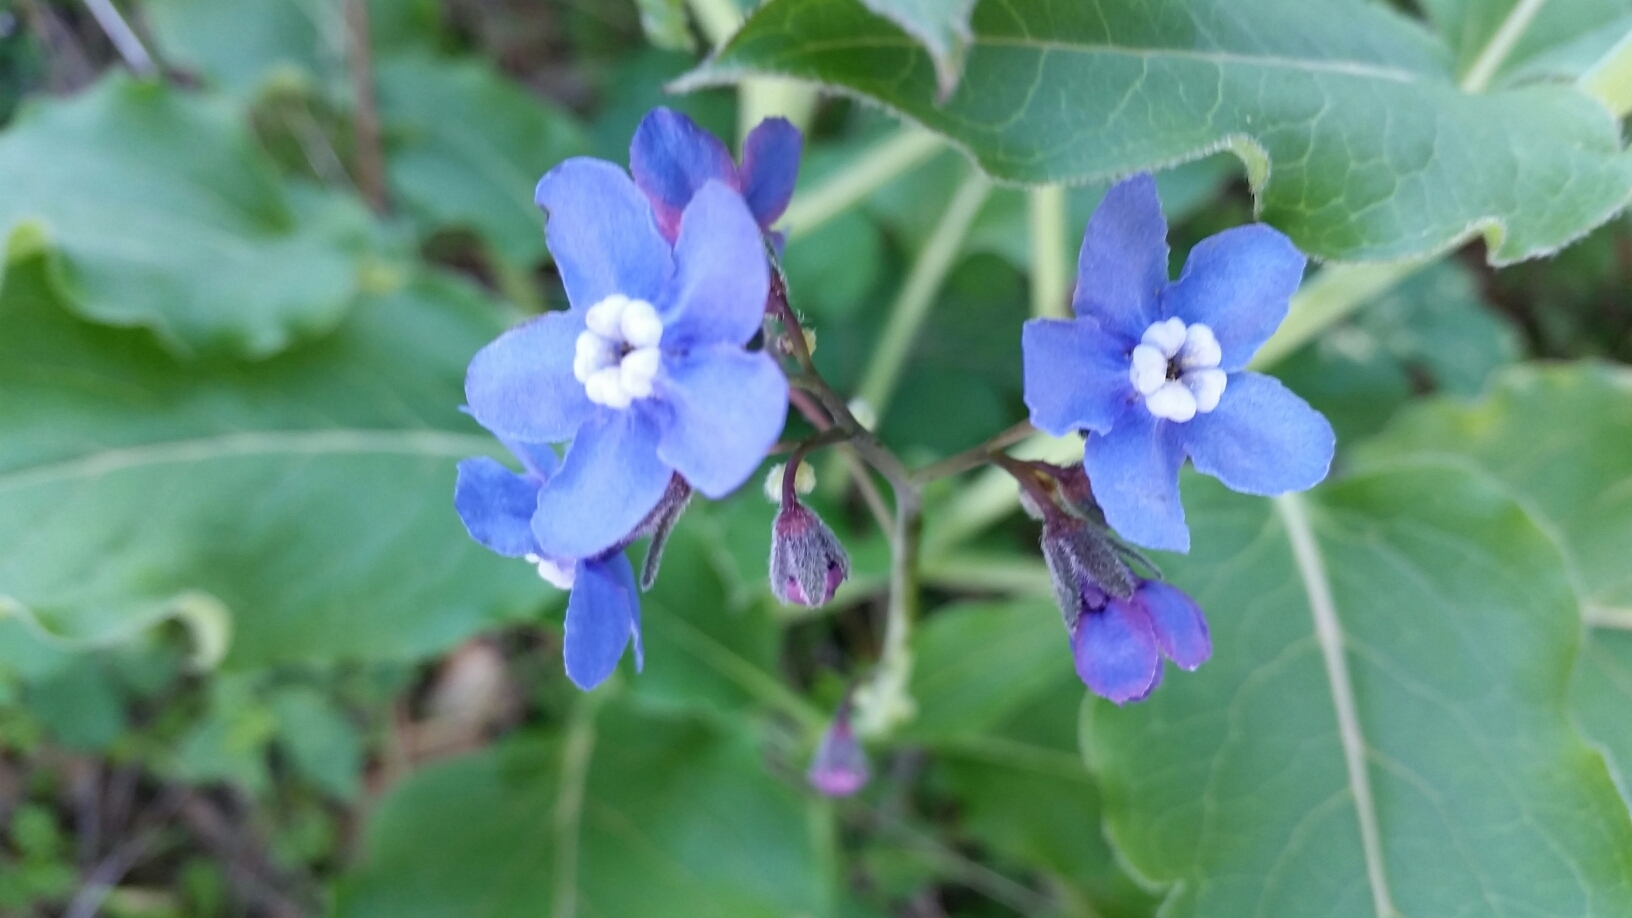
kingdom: Plantae
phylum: Tracheophyta
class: Magnoliopsida
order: Boraginales
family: Boraginaceae
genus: Adelinia
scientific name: Adelinia grande
